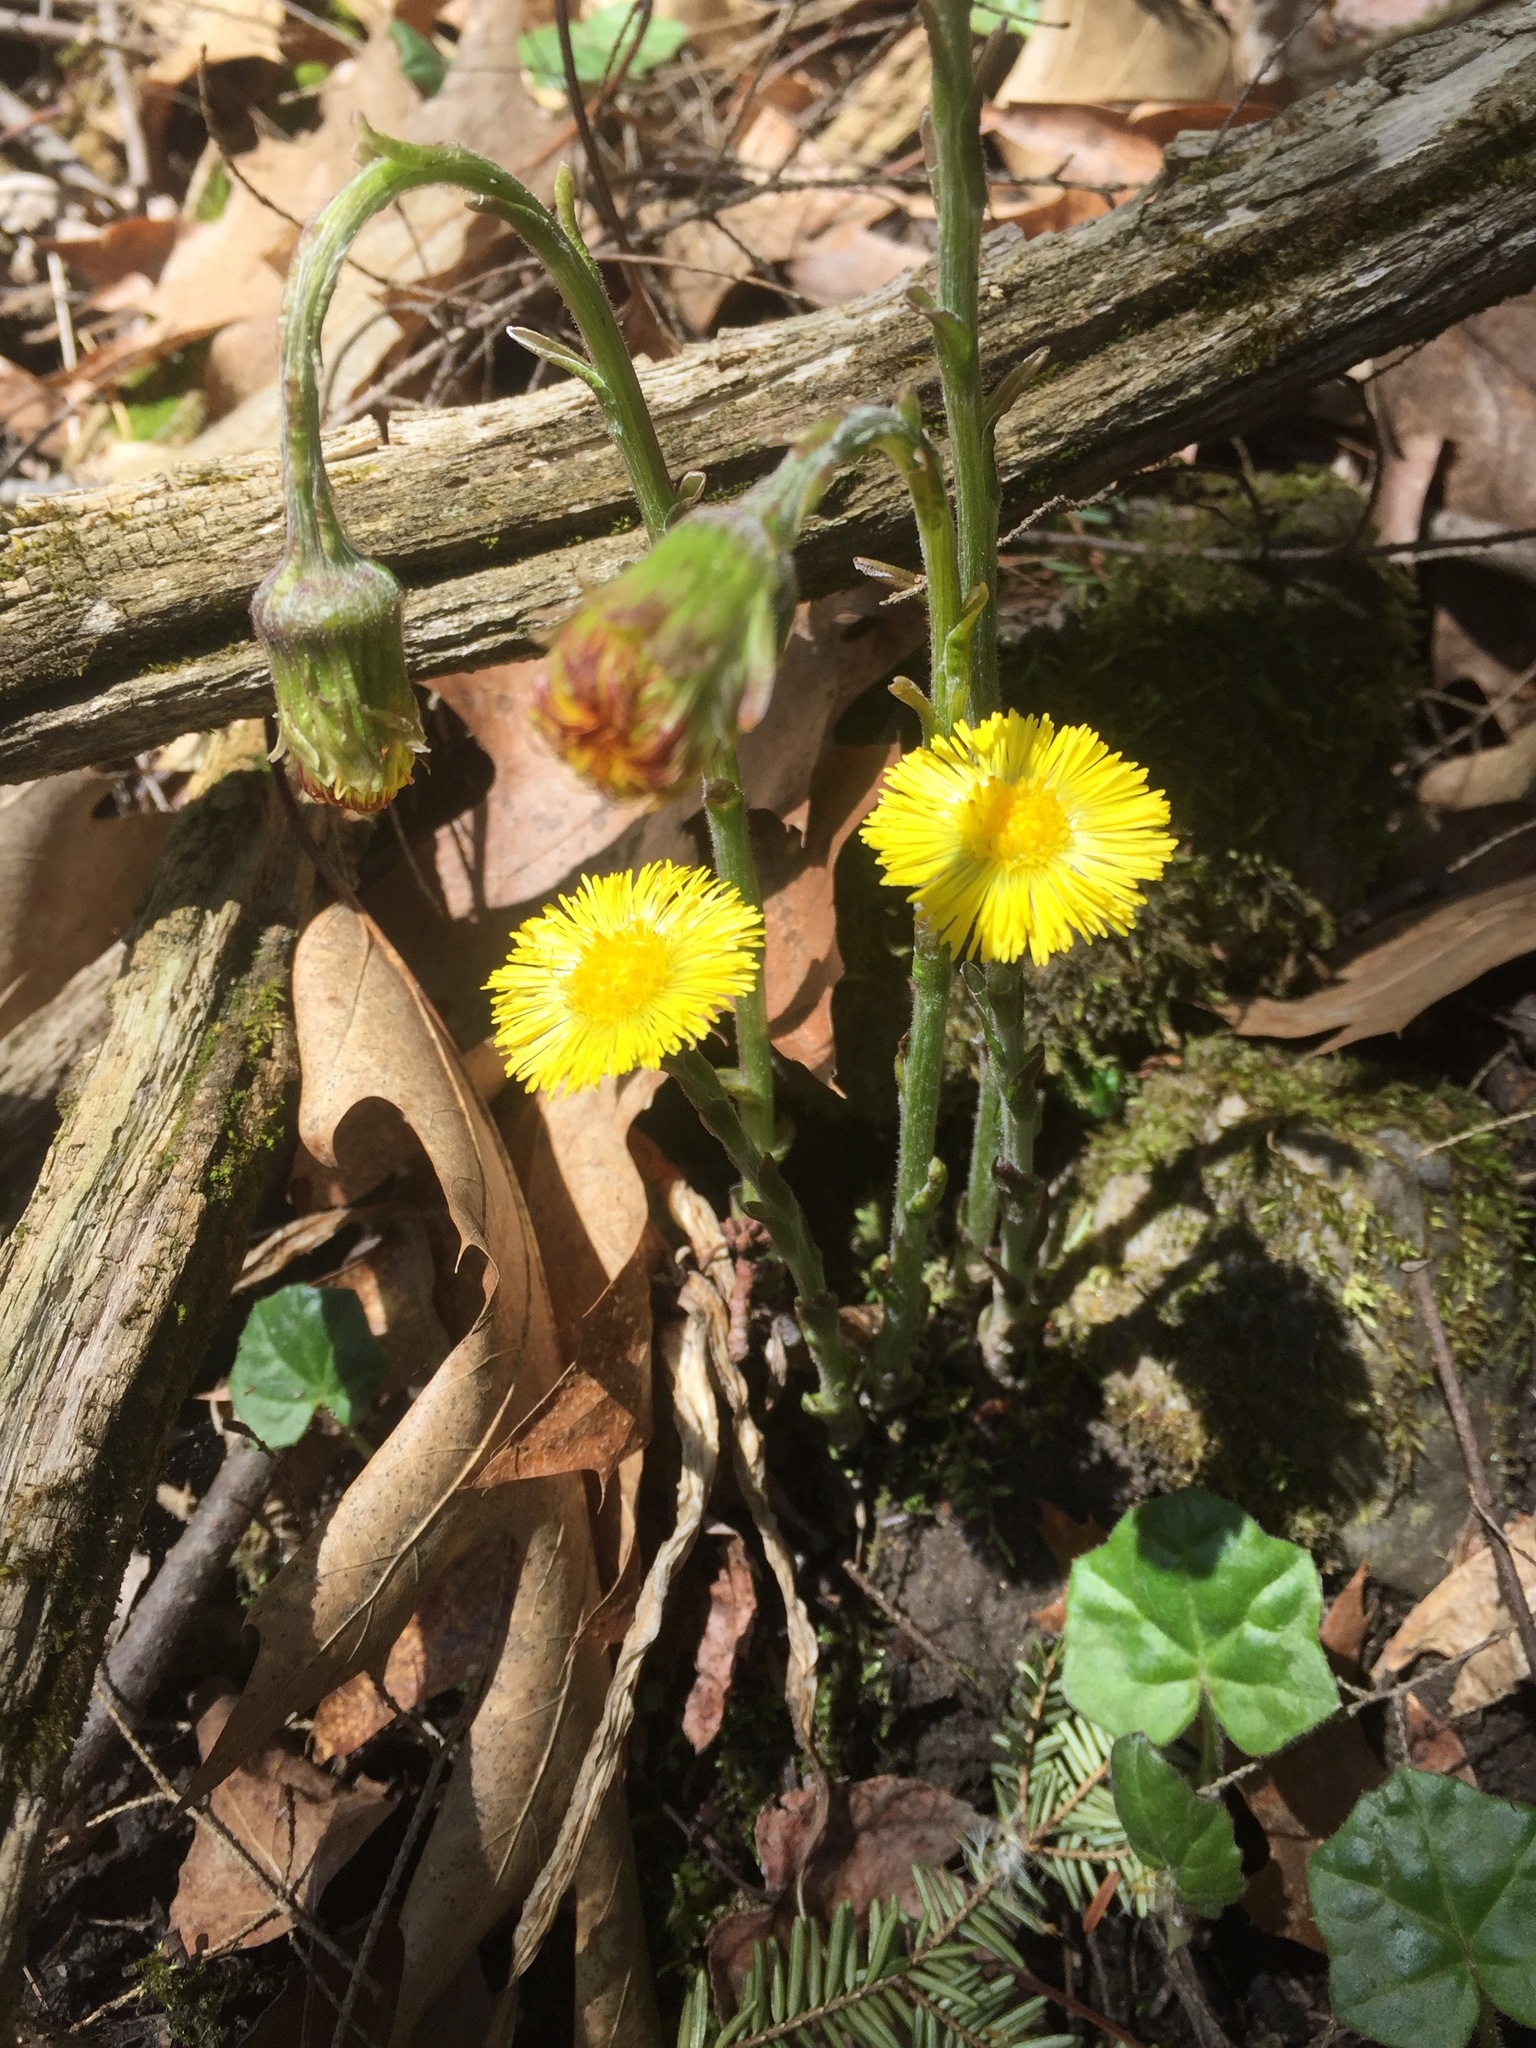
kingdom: Plantae
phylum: Tracheophyta
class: Magnoliopsida
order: Asterales
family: Asteraceae
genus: Tussilago
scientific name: Tussilago farfara
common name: Coltsfoot
